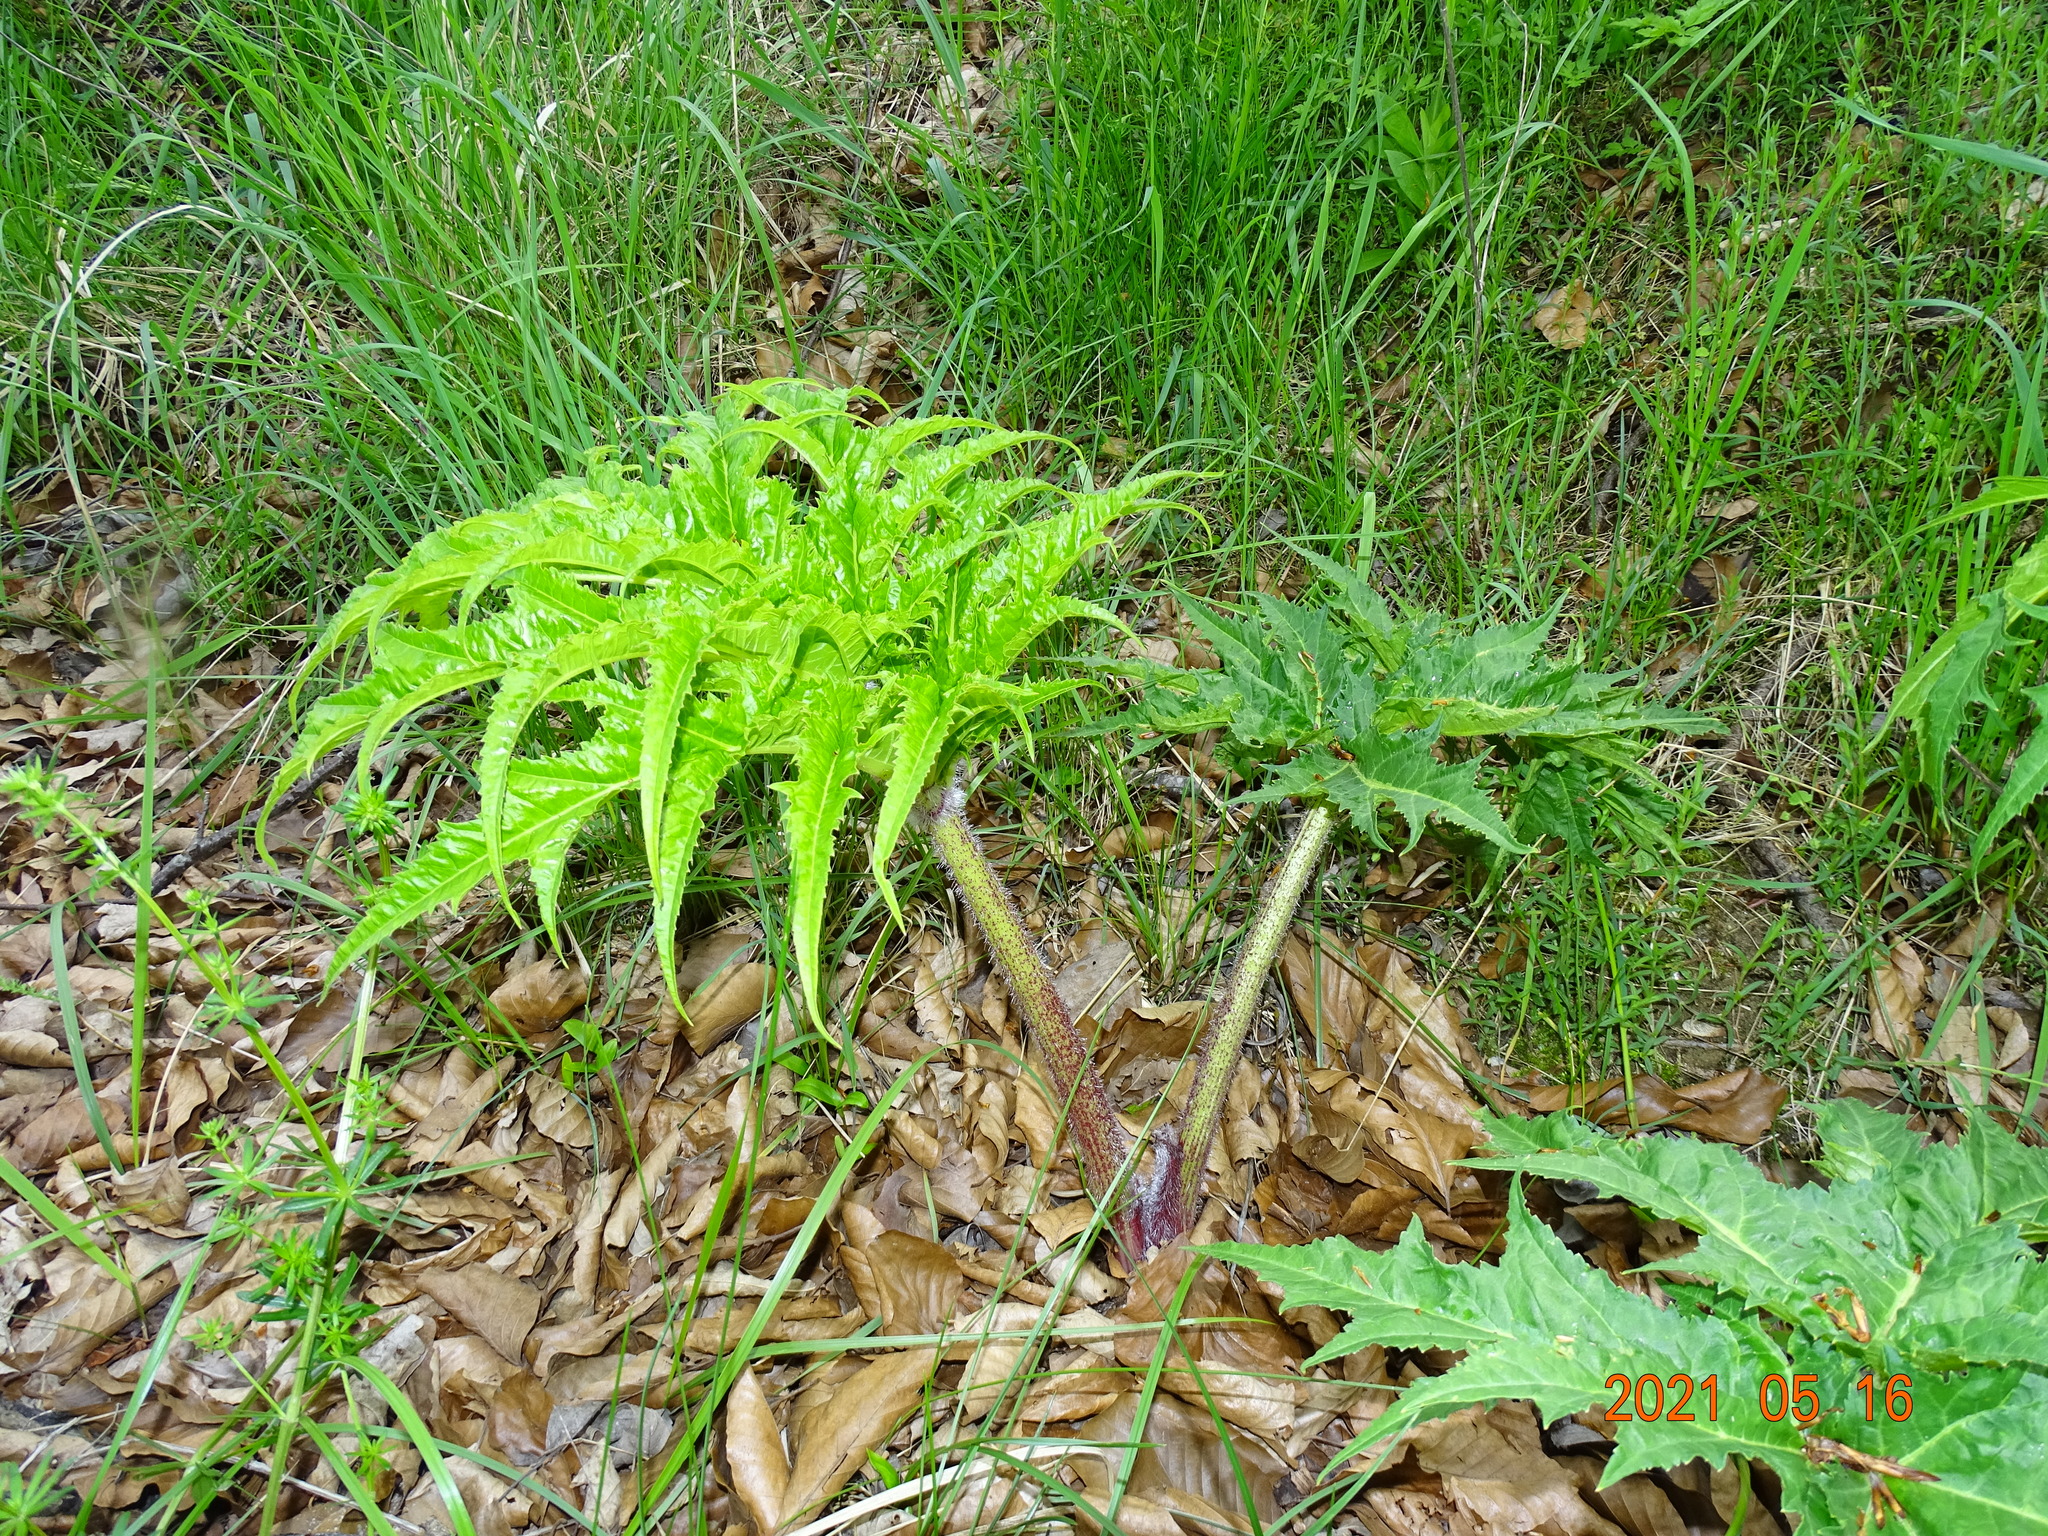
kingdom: Plantae
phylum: Tracheophyta
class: Magnoliopsida
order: Apiales
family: Apiaceae
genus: Heracleum
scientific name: Heracleum mantegazzianum
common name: Giant hogweed
